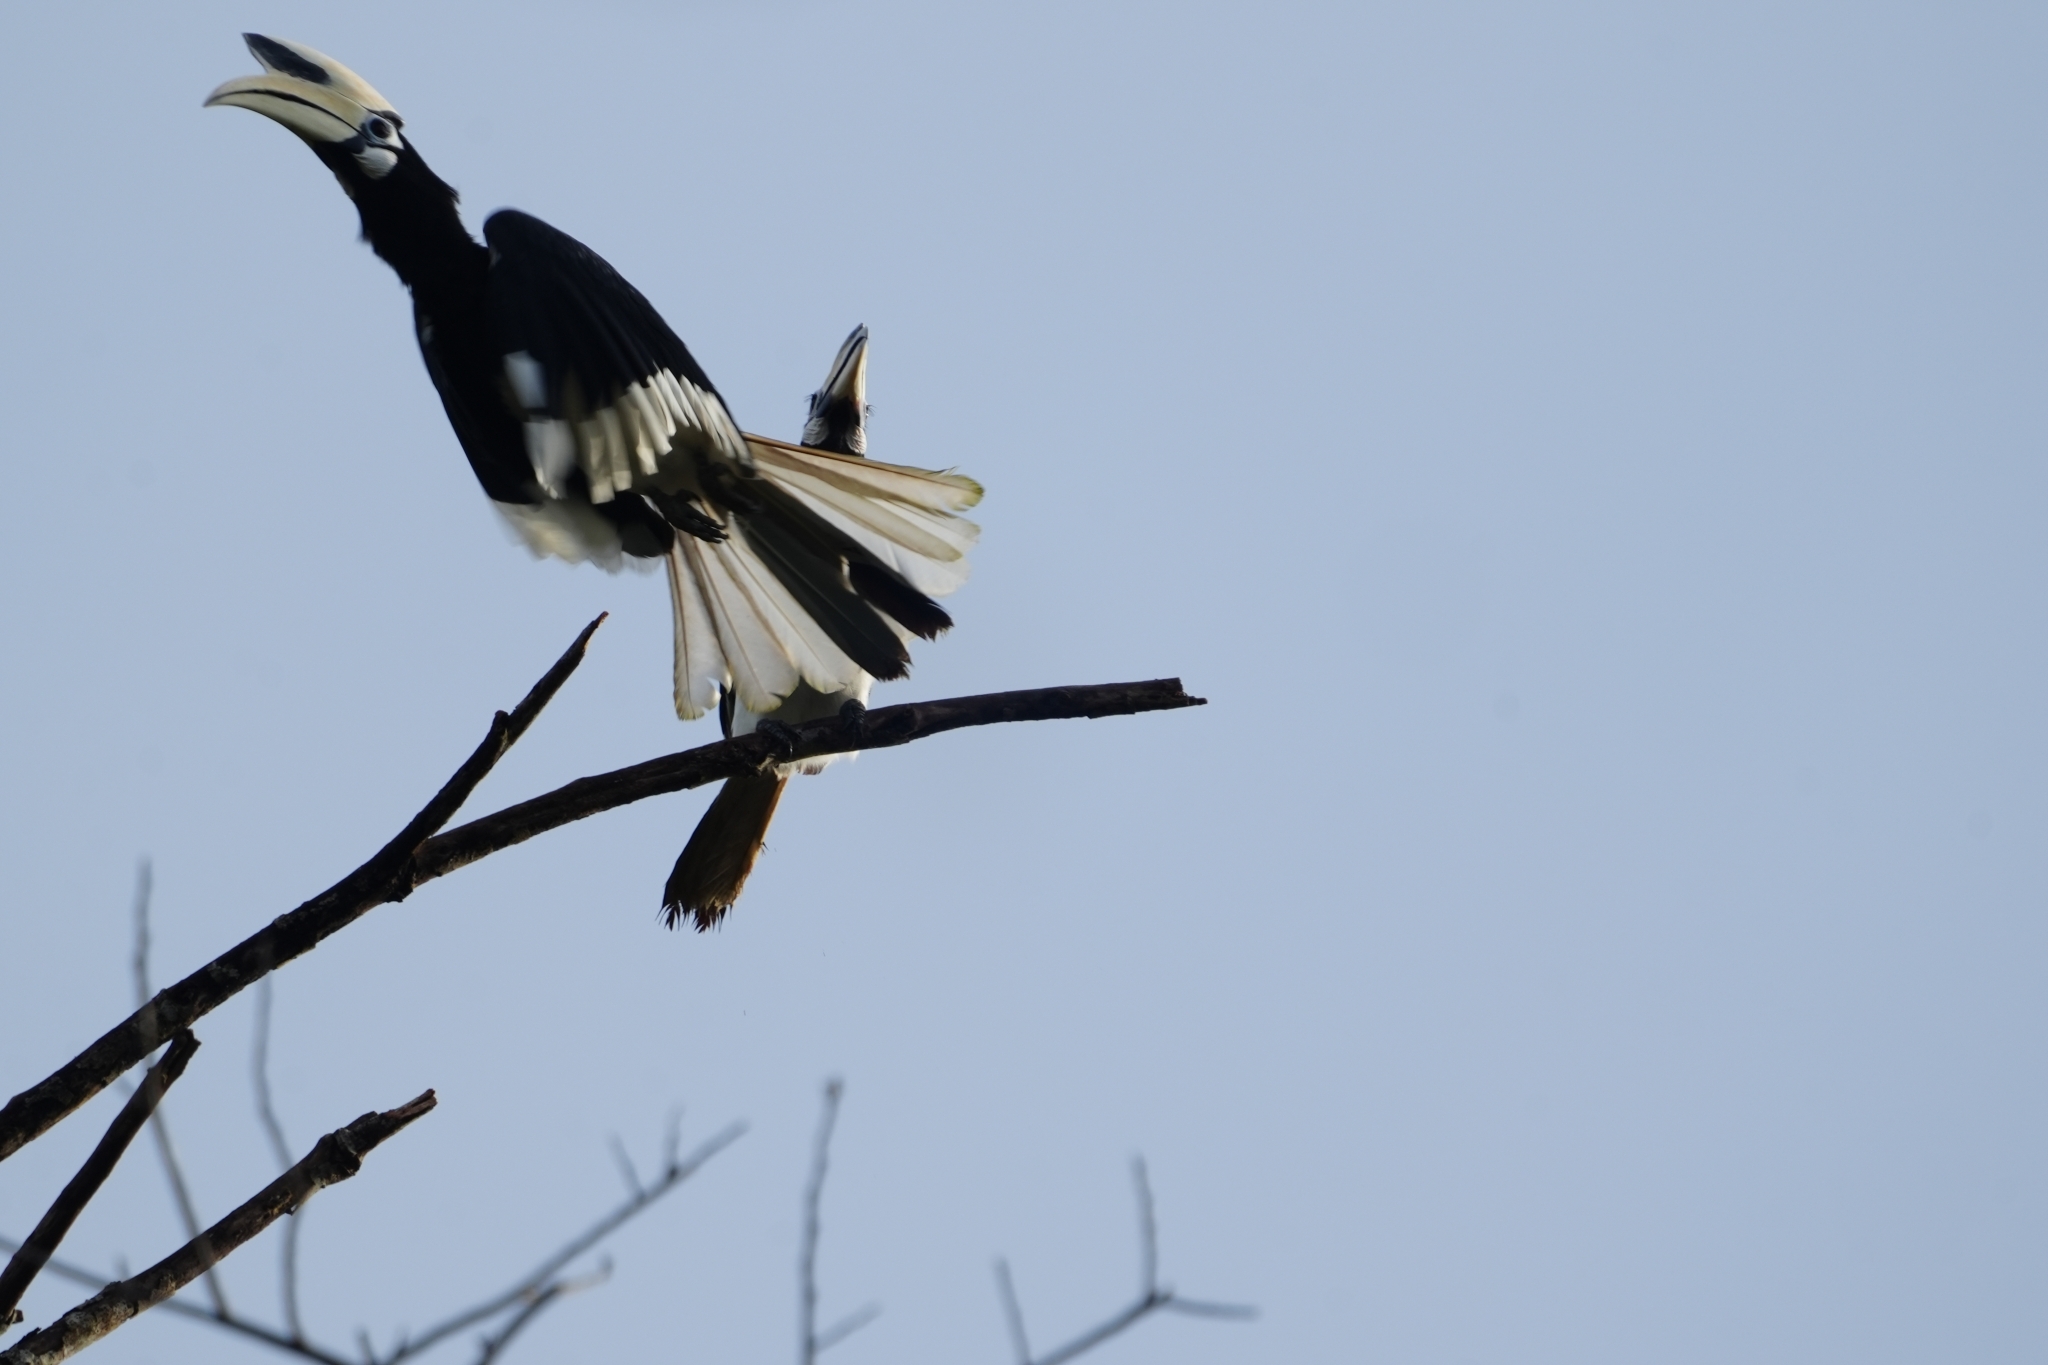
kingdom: Animalia
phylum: Chordata
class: Aves
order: Bucerotiformes
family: Bucerotidae
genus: Anthracoceros
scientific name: Anthracoceros albirostris
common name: Oriental pied-hornbill
